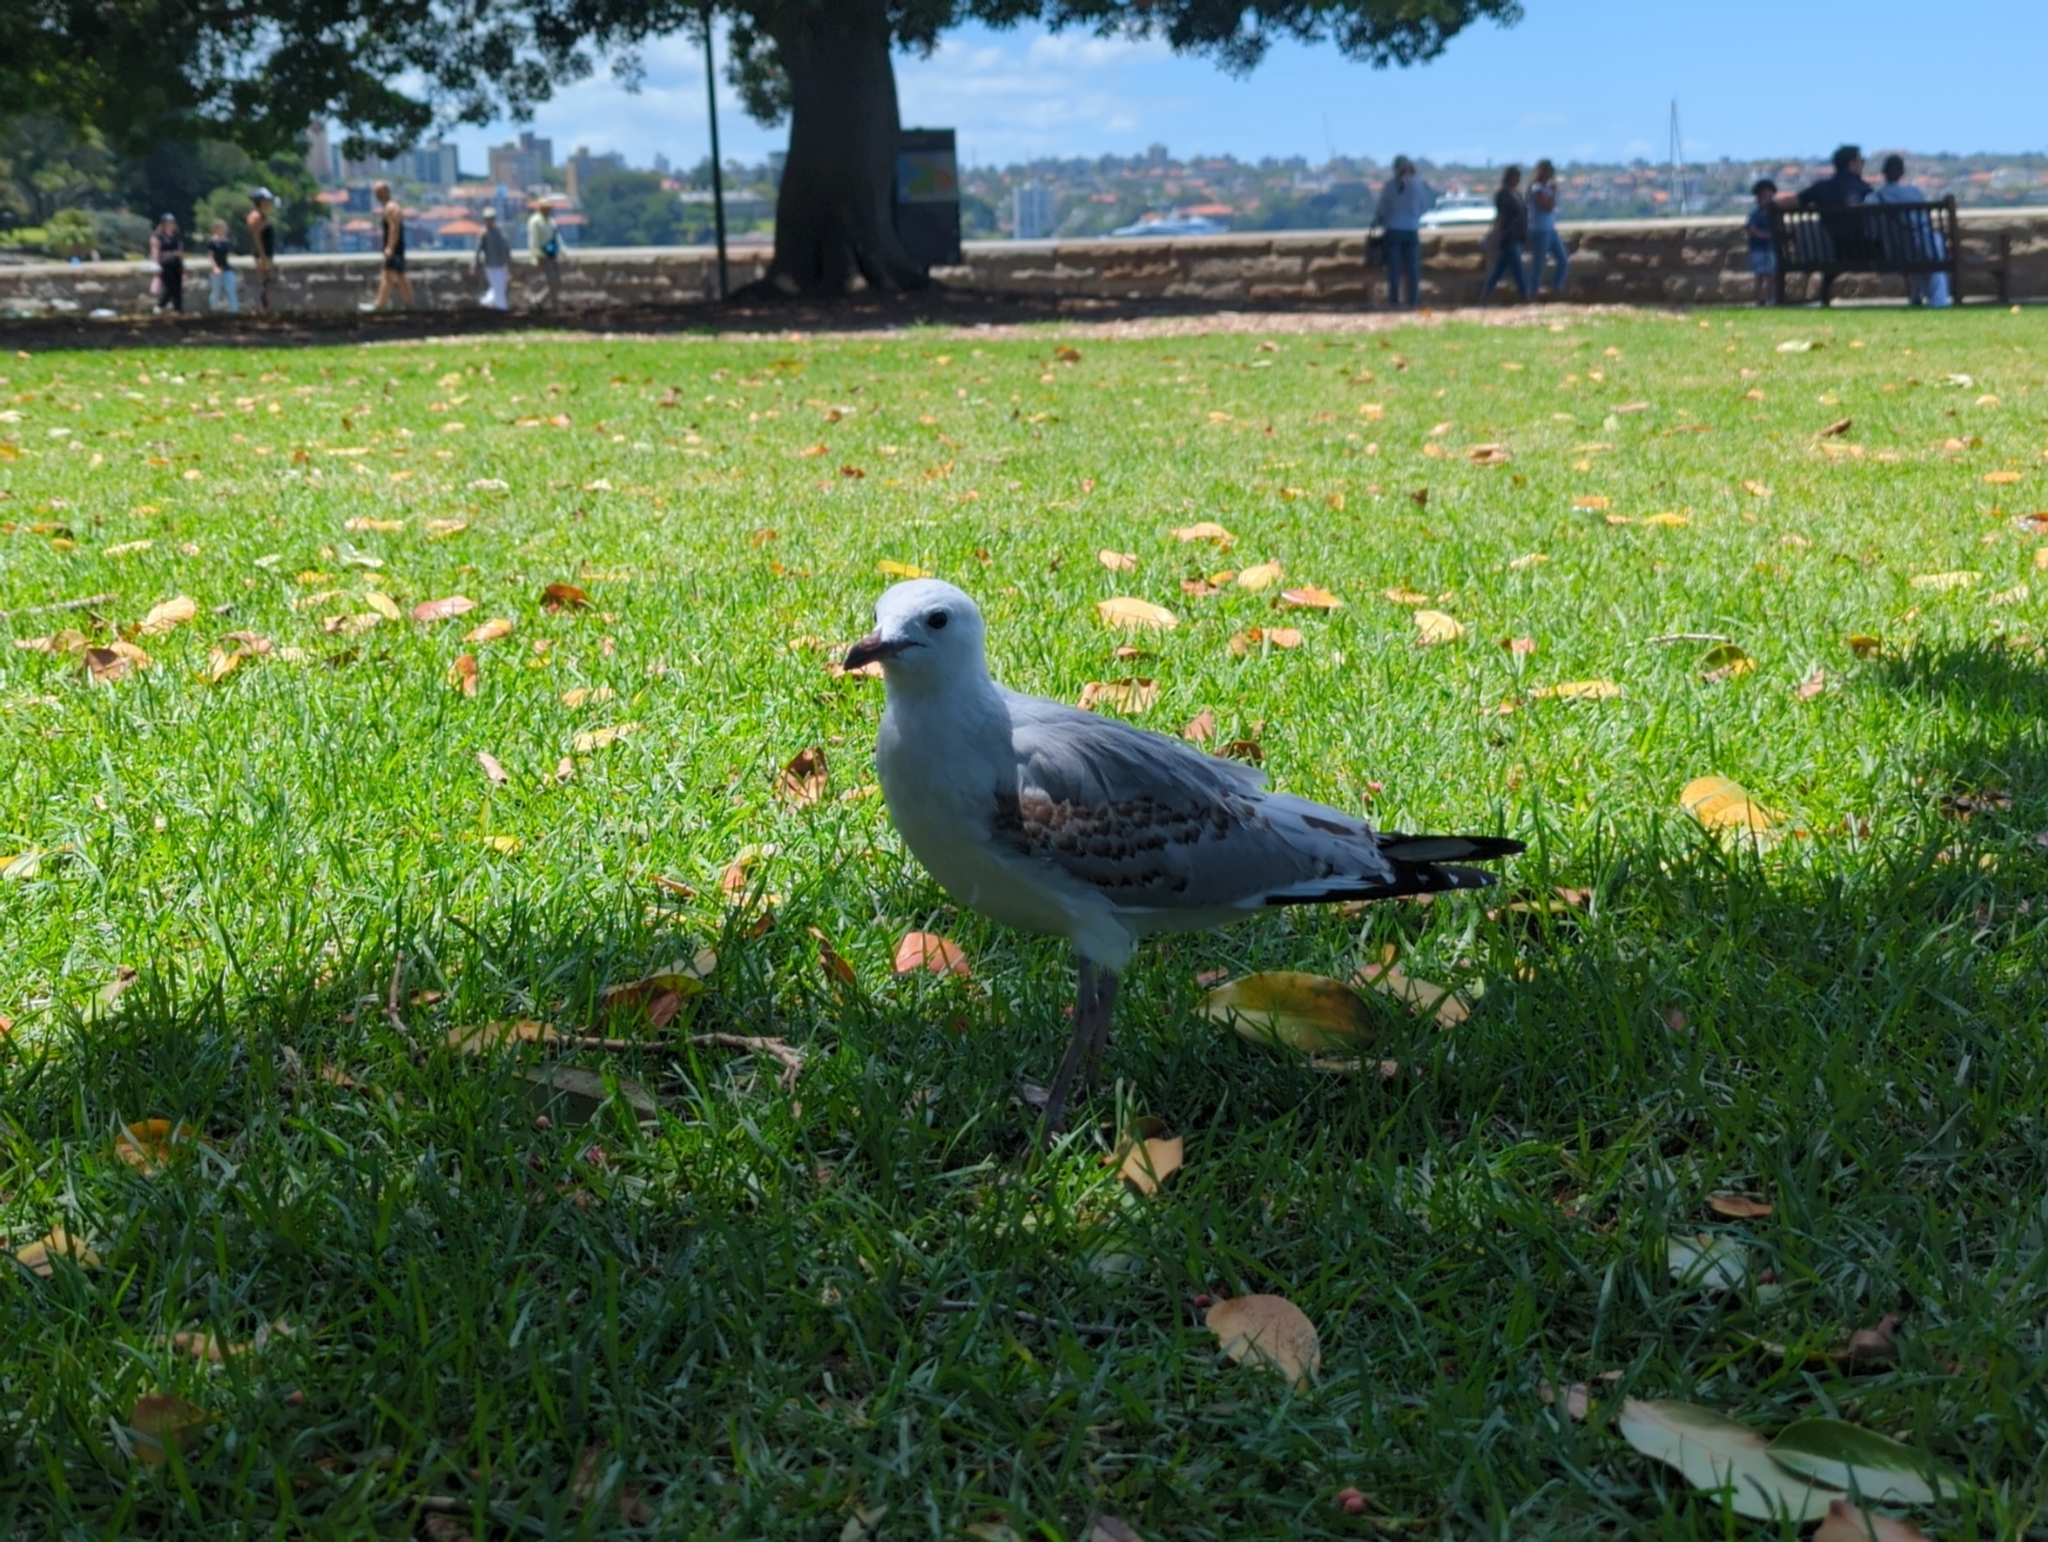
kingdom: Animalia
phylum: Chordata
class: Aves
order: Charadriiformes
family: Laridae
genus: Chroicocephalus
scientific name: Chroicocephalus novaehollandiae
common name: Silver gull
